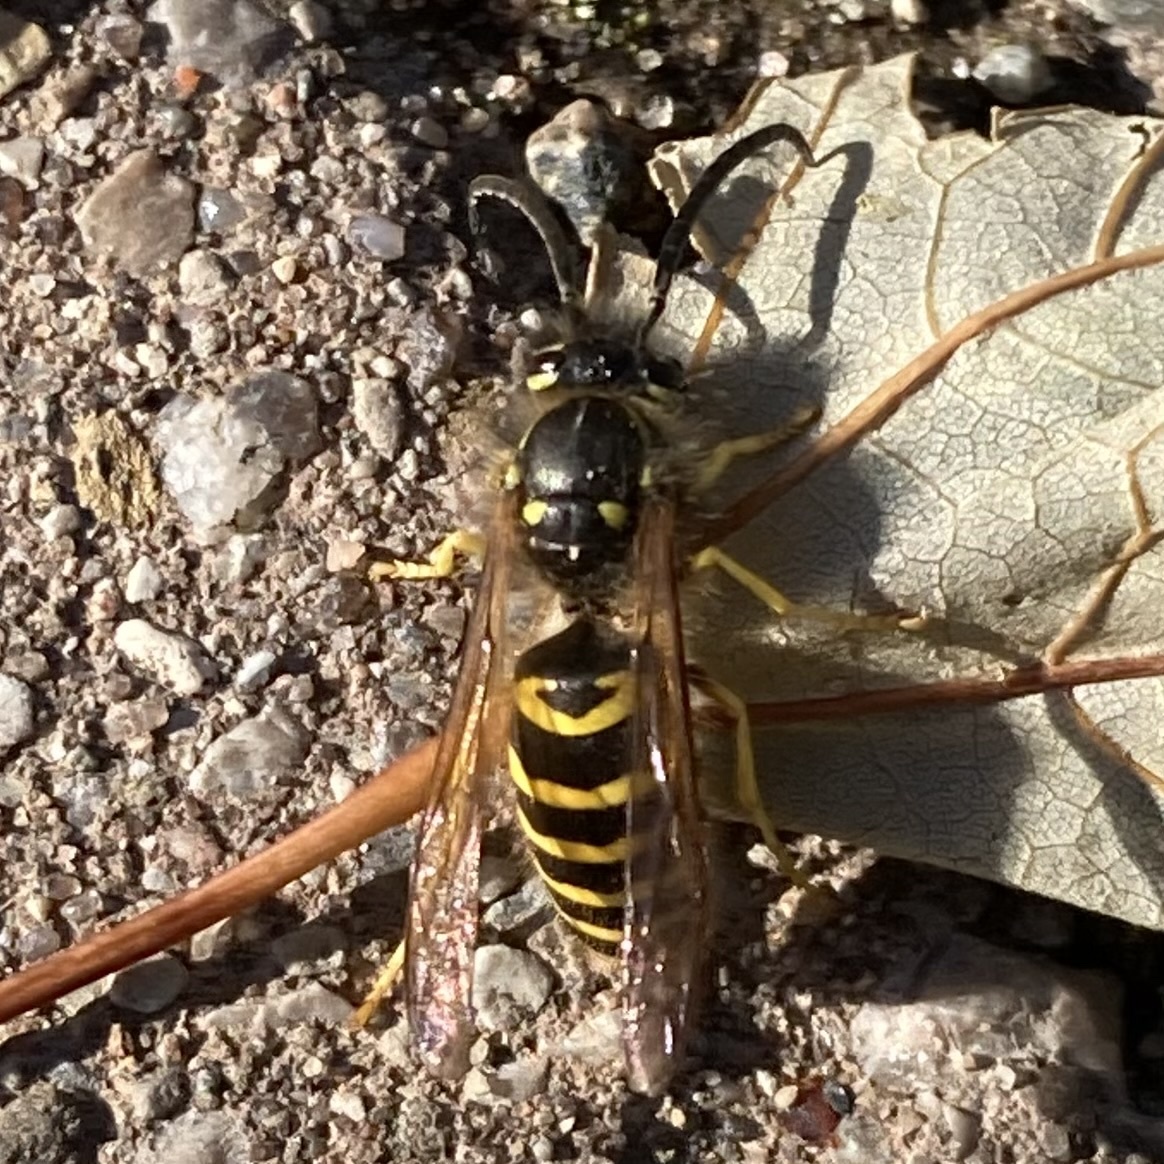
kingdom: Animalia
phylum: Arthropoda
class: Insecta
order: Hymenoptera
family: Vespidae
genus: Vespula
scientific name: Vespula maculifrons
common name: Eastern yellowjacket
